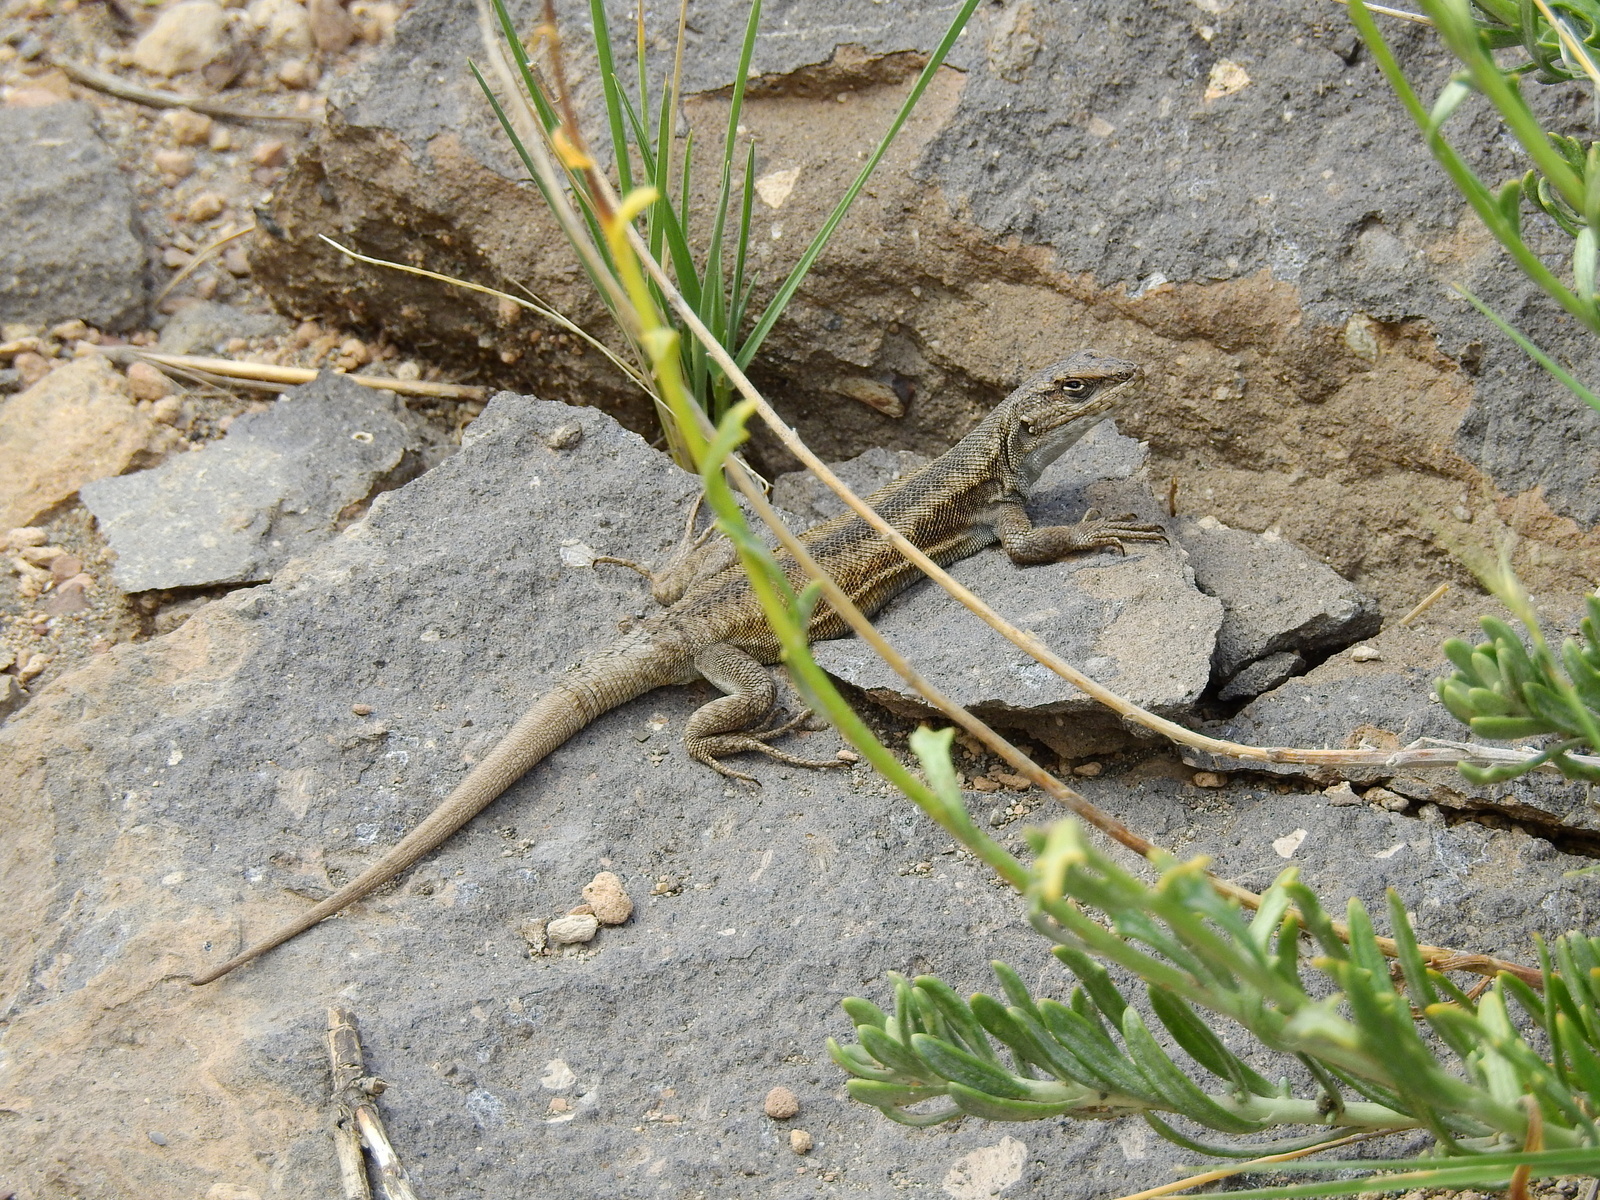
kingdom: Animalia
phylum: Chordata
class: Squamata
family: Liolaemidae
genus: Liolaemus
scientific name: Liolaemus smaug
